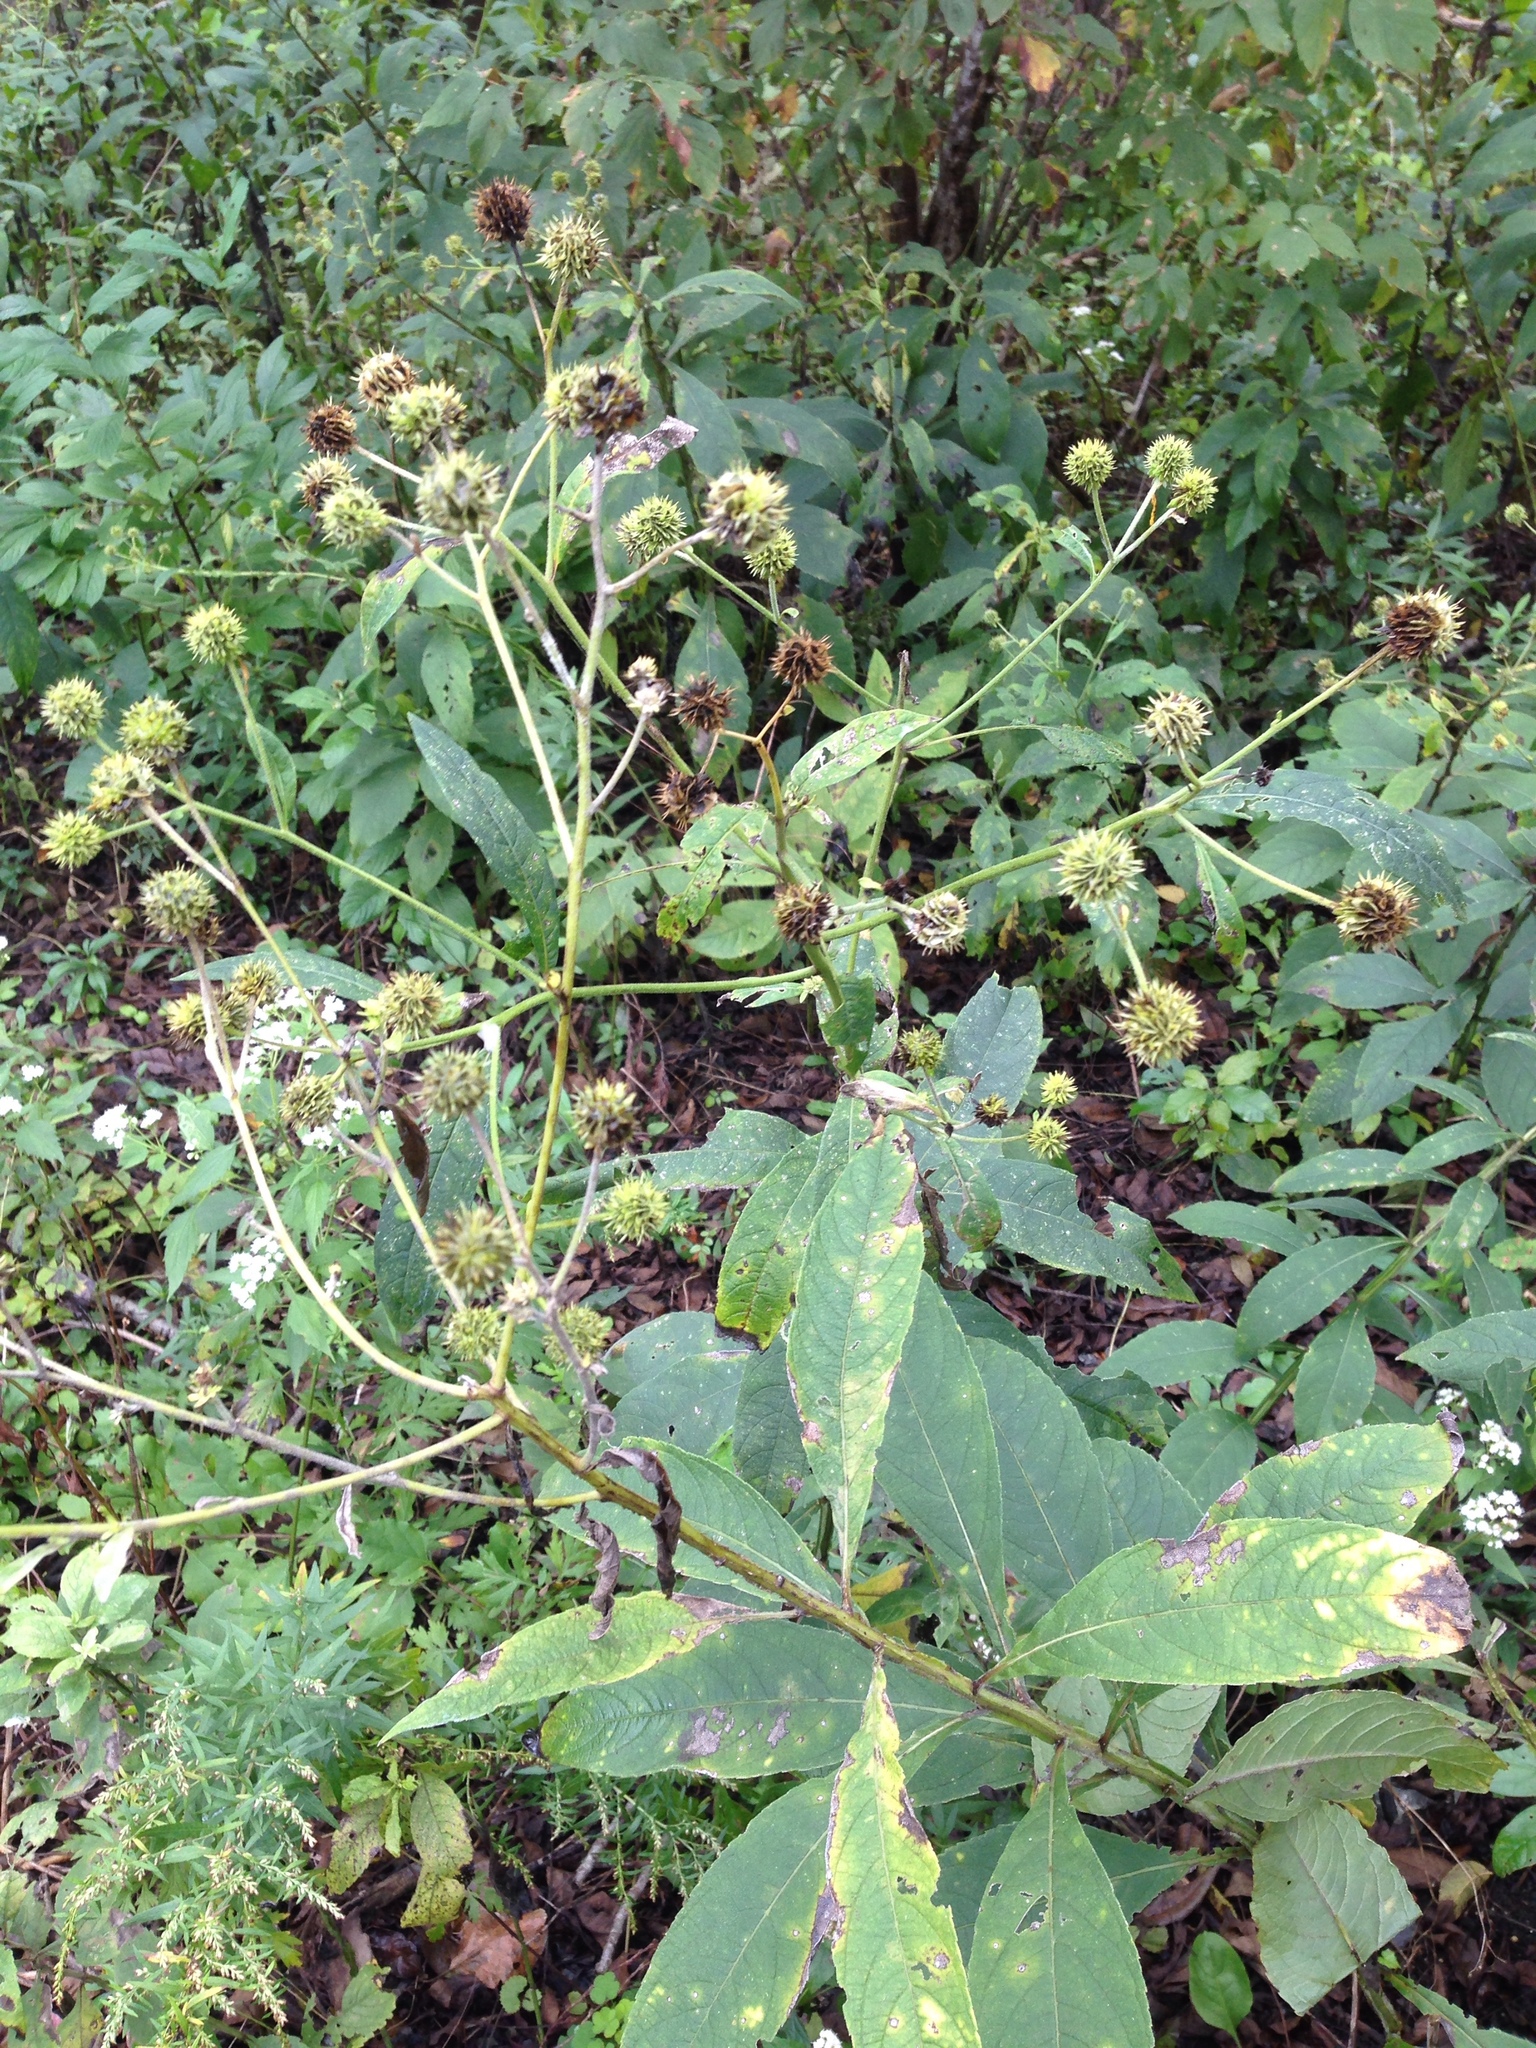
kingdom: Plantae
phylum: Tracheophyta
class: Magnoliopsida
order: Asterales
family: Asteraceae
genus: Verbesina
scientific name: Verbesina alternifolia
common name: Wingstem
